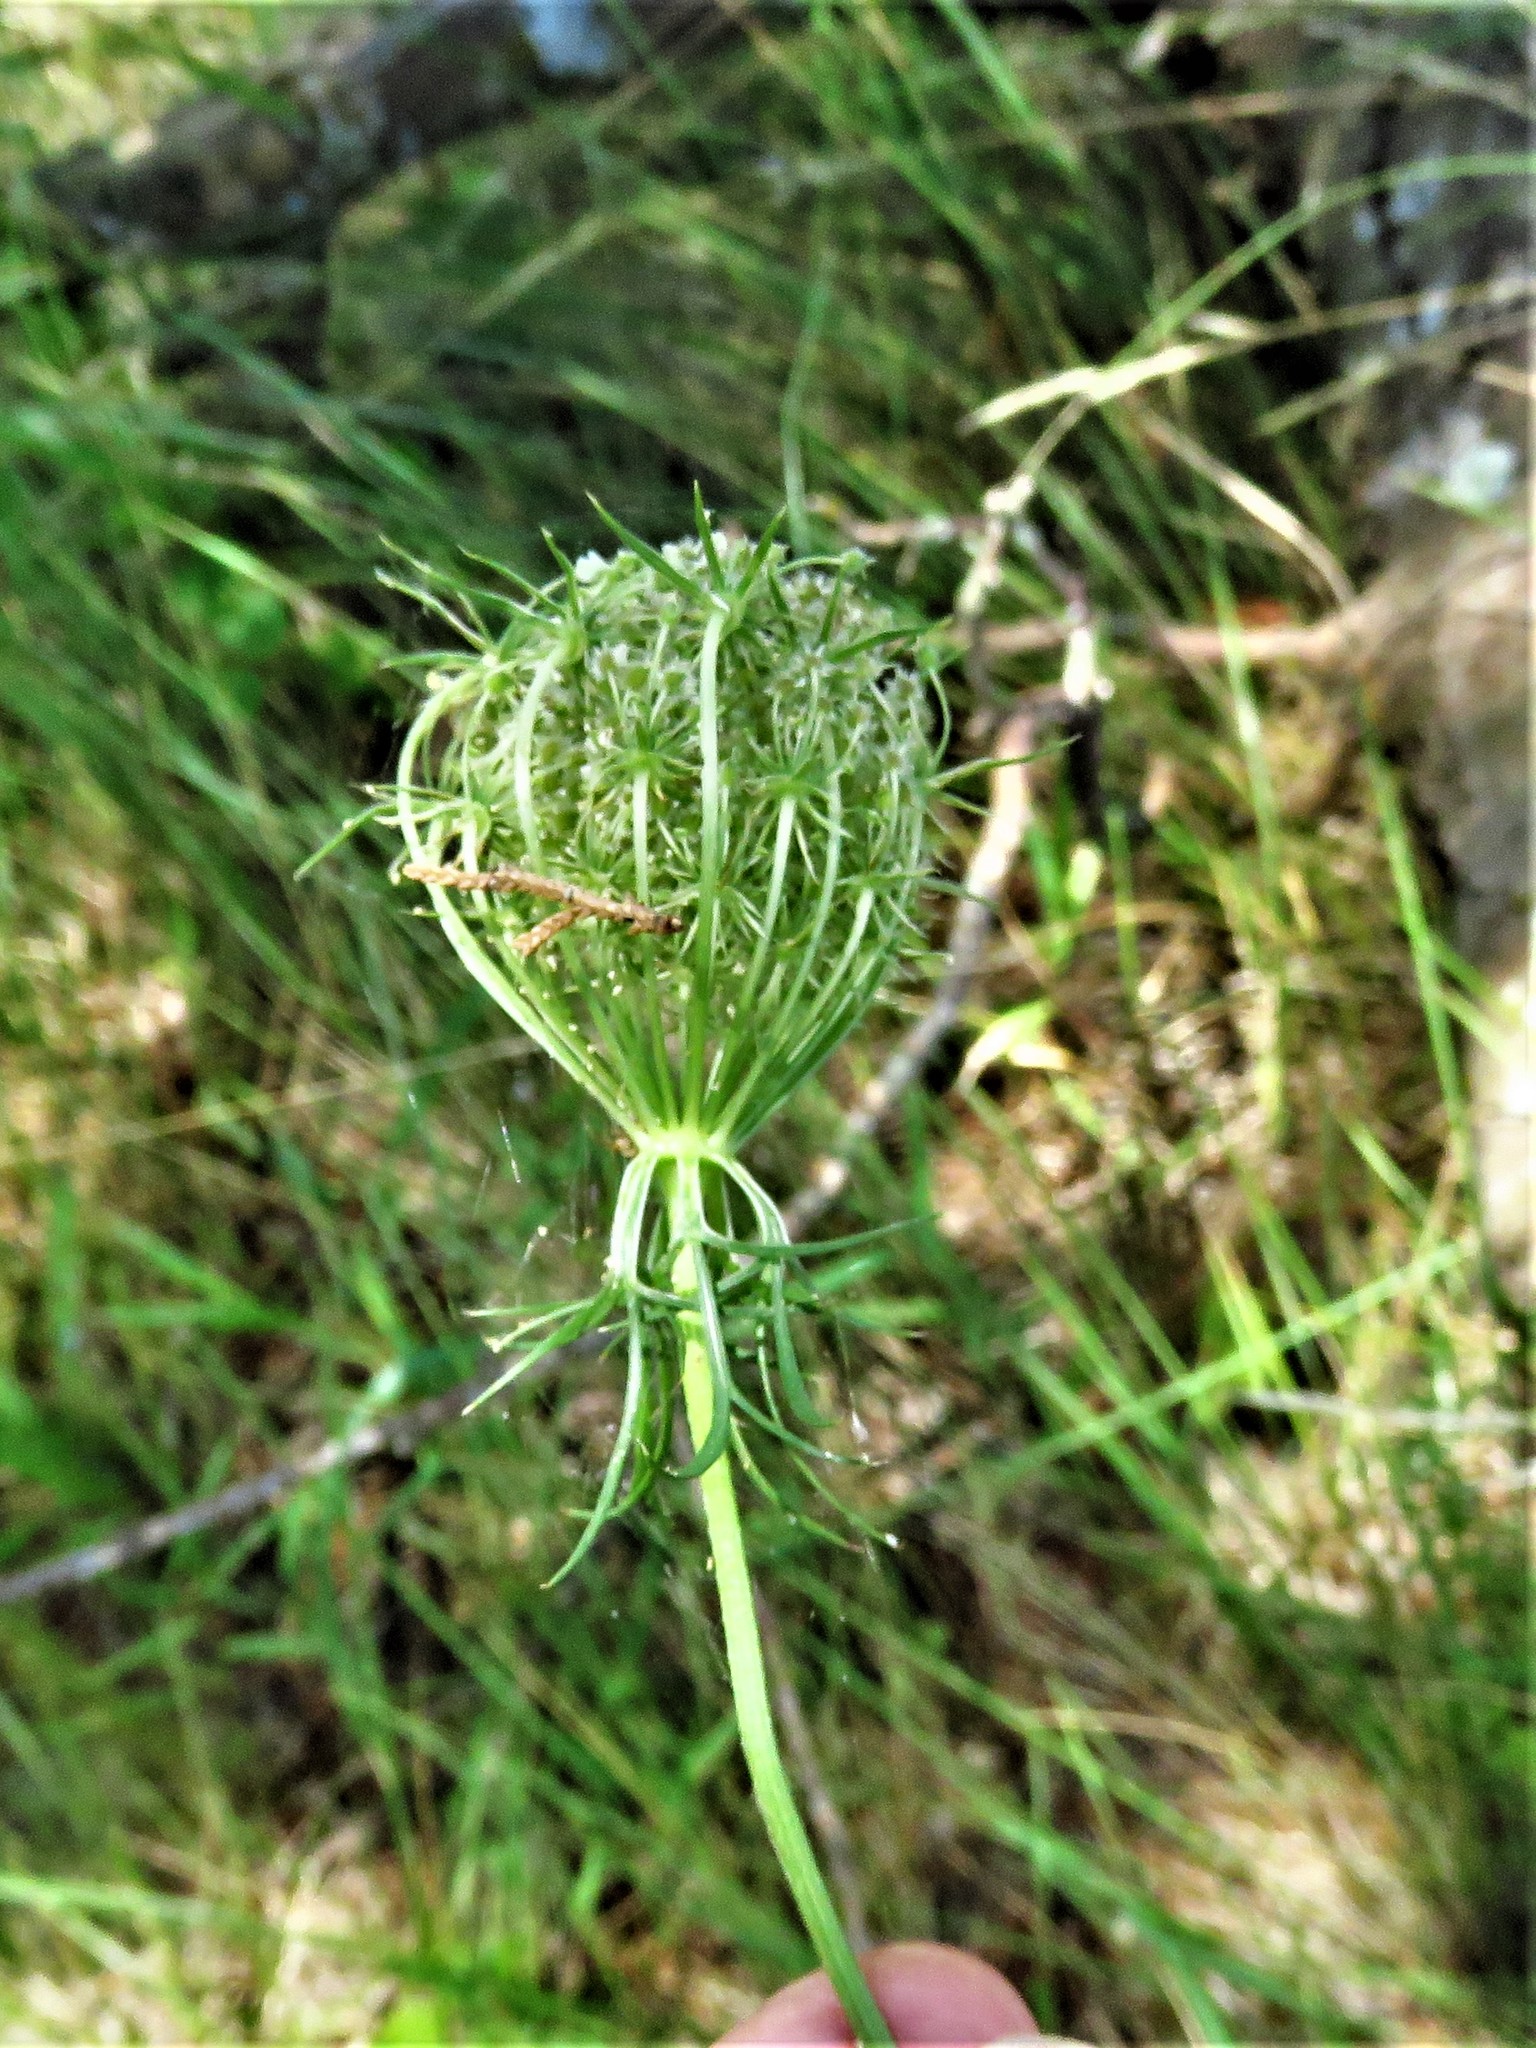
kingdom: Plantae
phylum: Tracheophyta
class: Magnoliopsida
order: Apiales
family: Apiaceae
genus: Daucus
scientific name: Daucus carota
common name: Wild carrot
